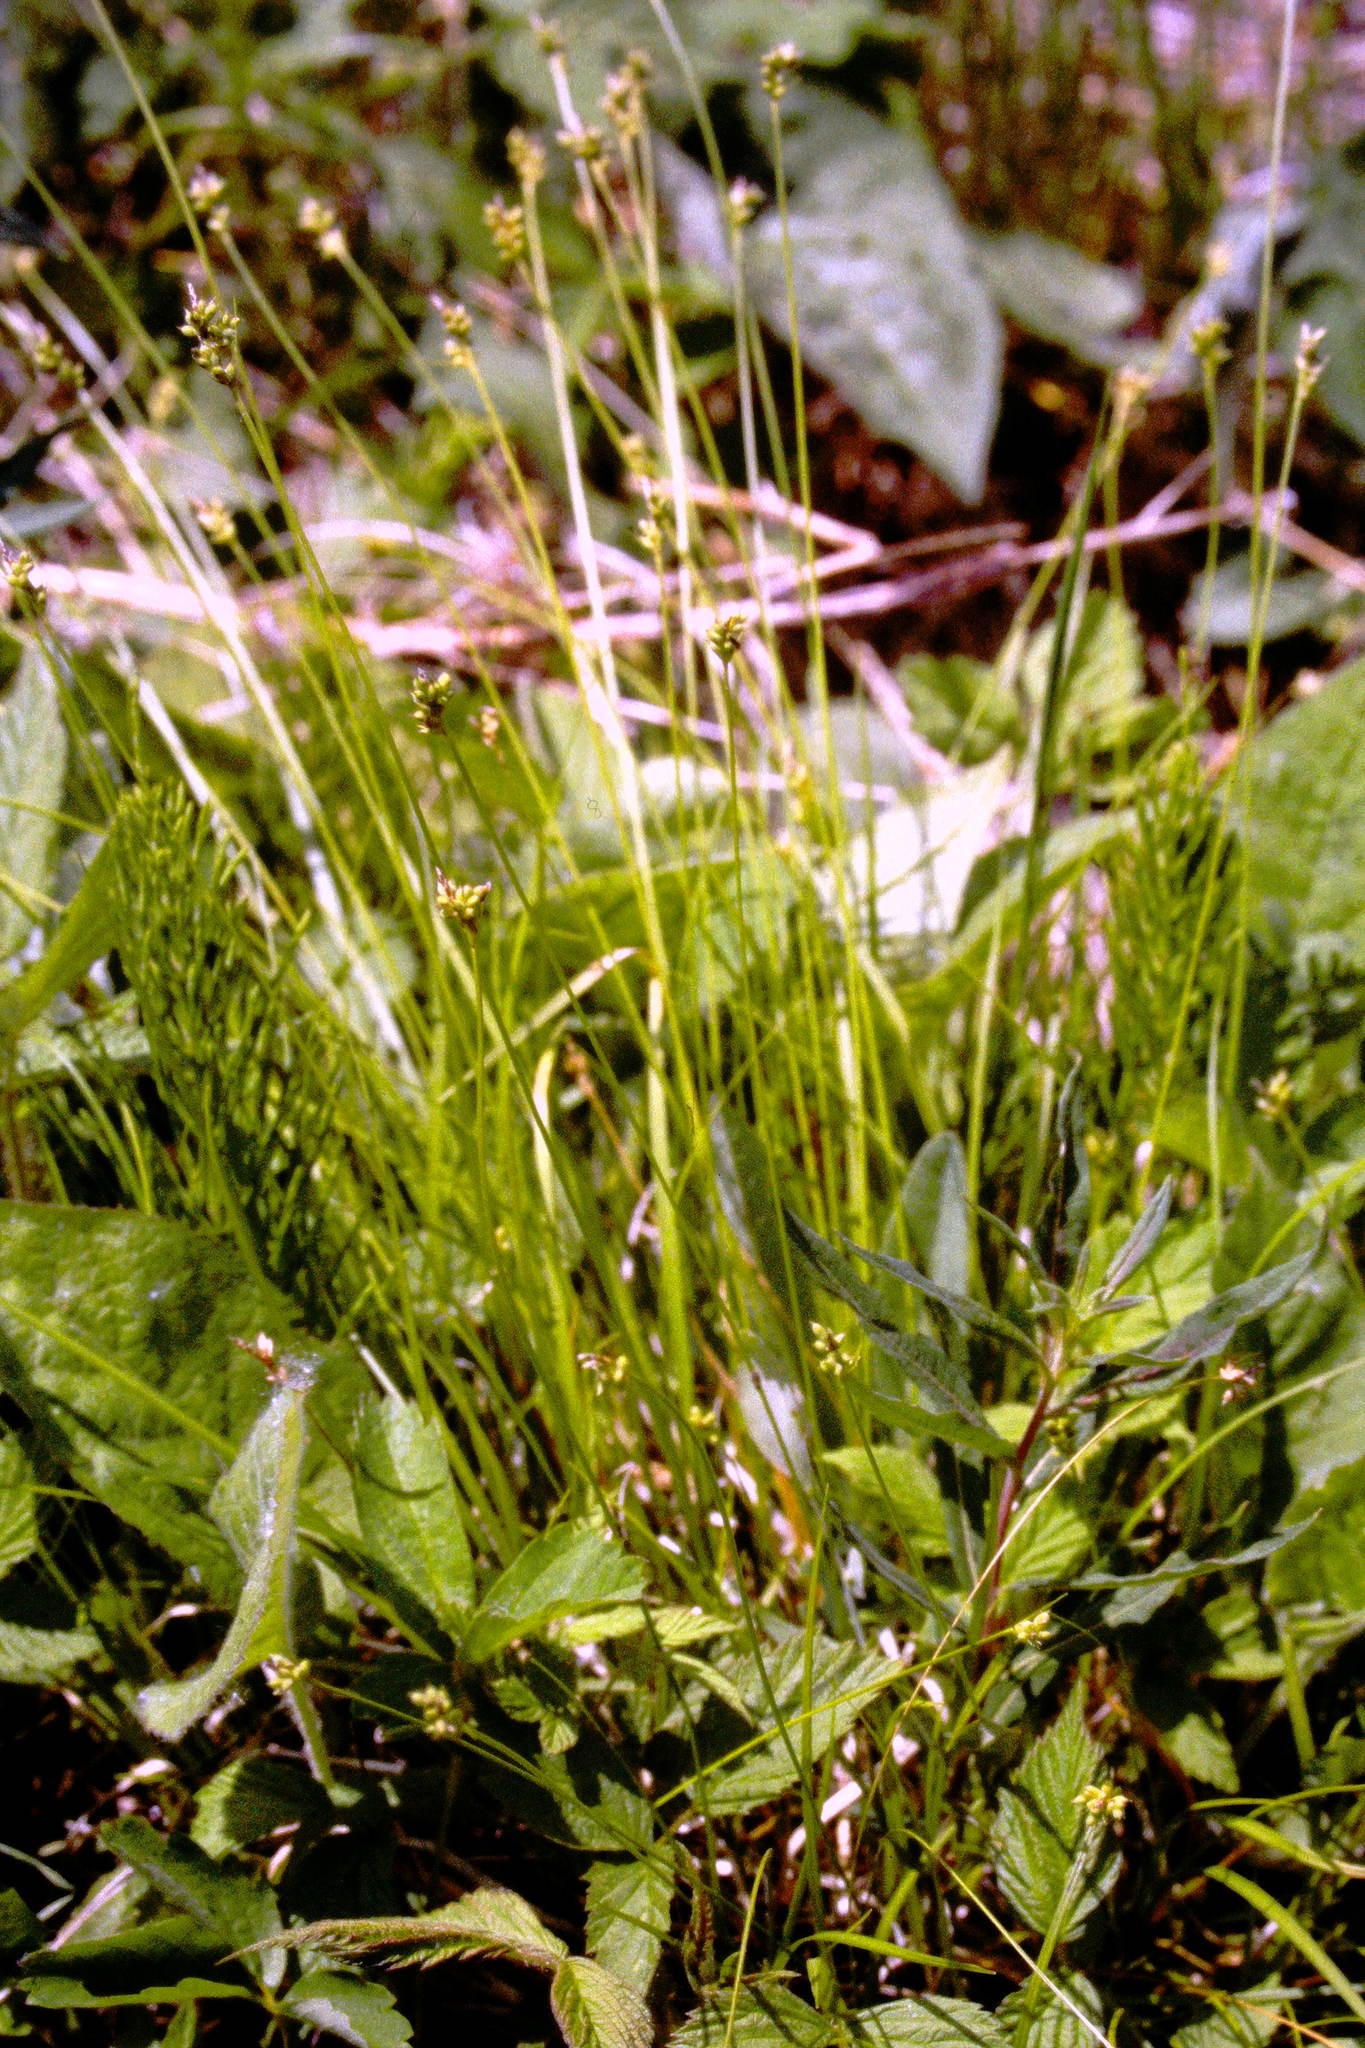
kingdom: Plantae
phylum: Tracheophyta
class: Liliopsida
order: Poales
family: Cyperaceae
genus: Carex
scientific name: Carex peckii
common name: Peck's oak sedge
